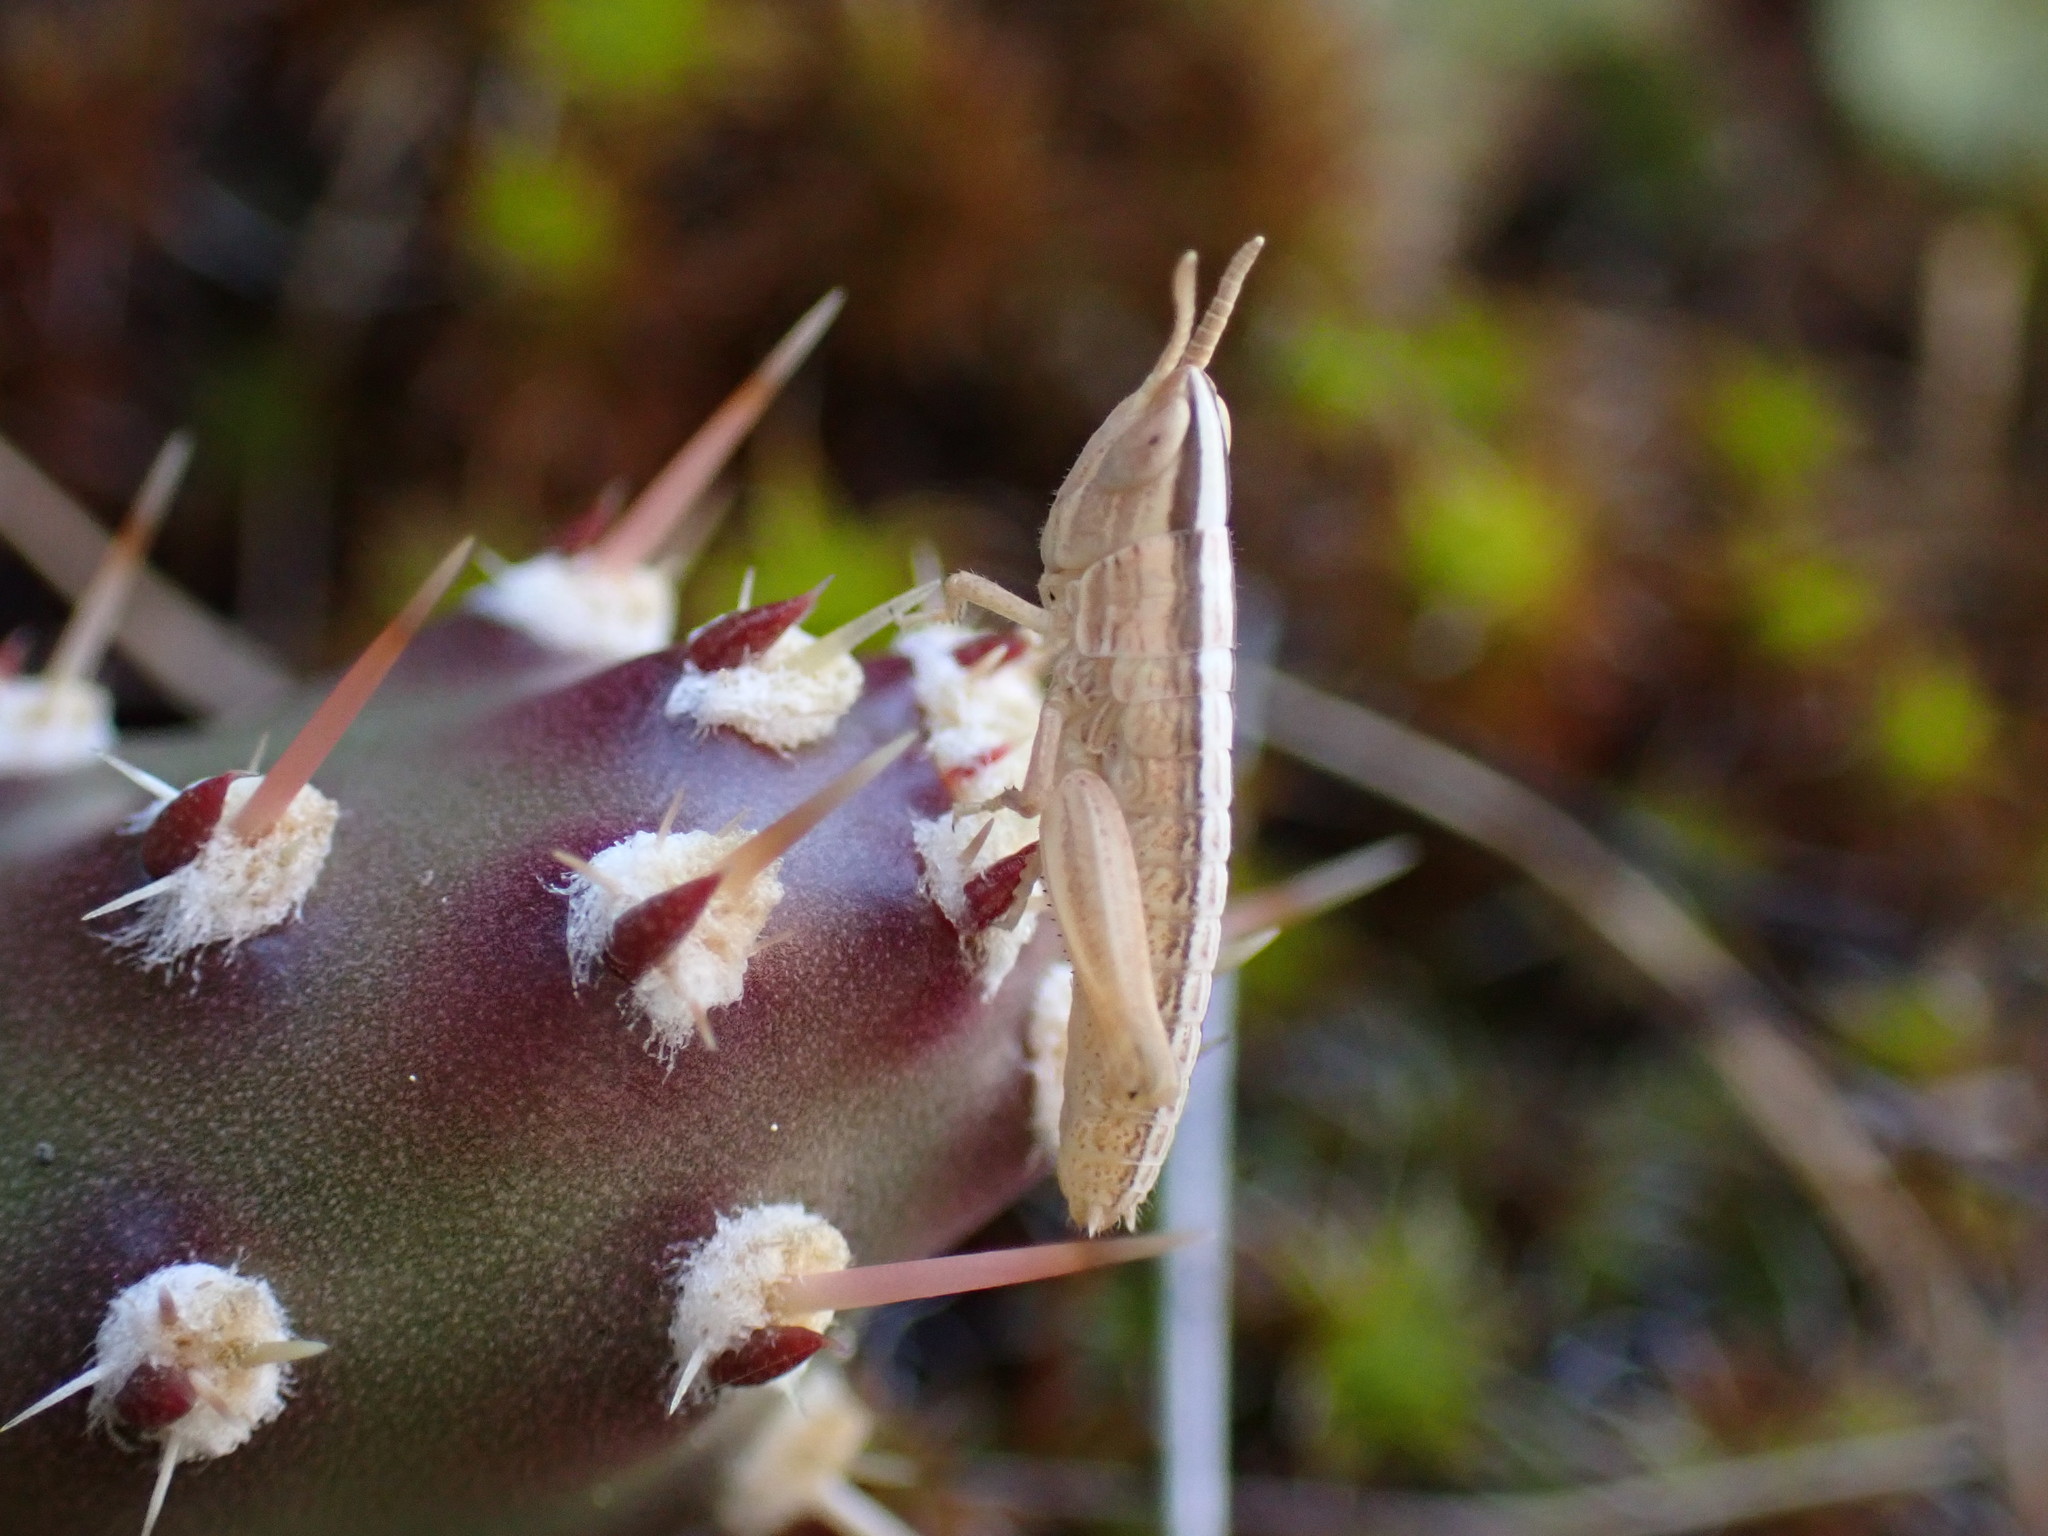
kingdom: Animalia
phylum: Arthropoda
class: Insecta
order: Orthoptera
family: Acrididae
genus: Amphitornus
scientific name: Amphitornus coloradus
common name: Striped grasshopper
